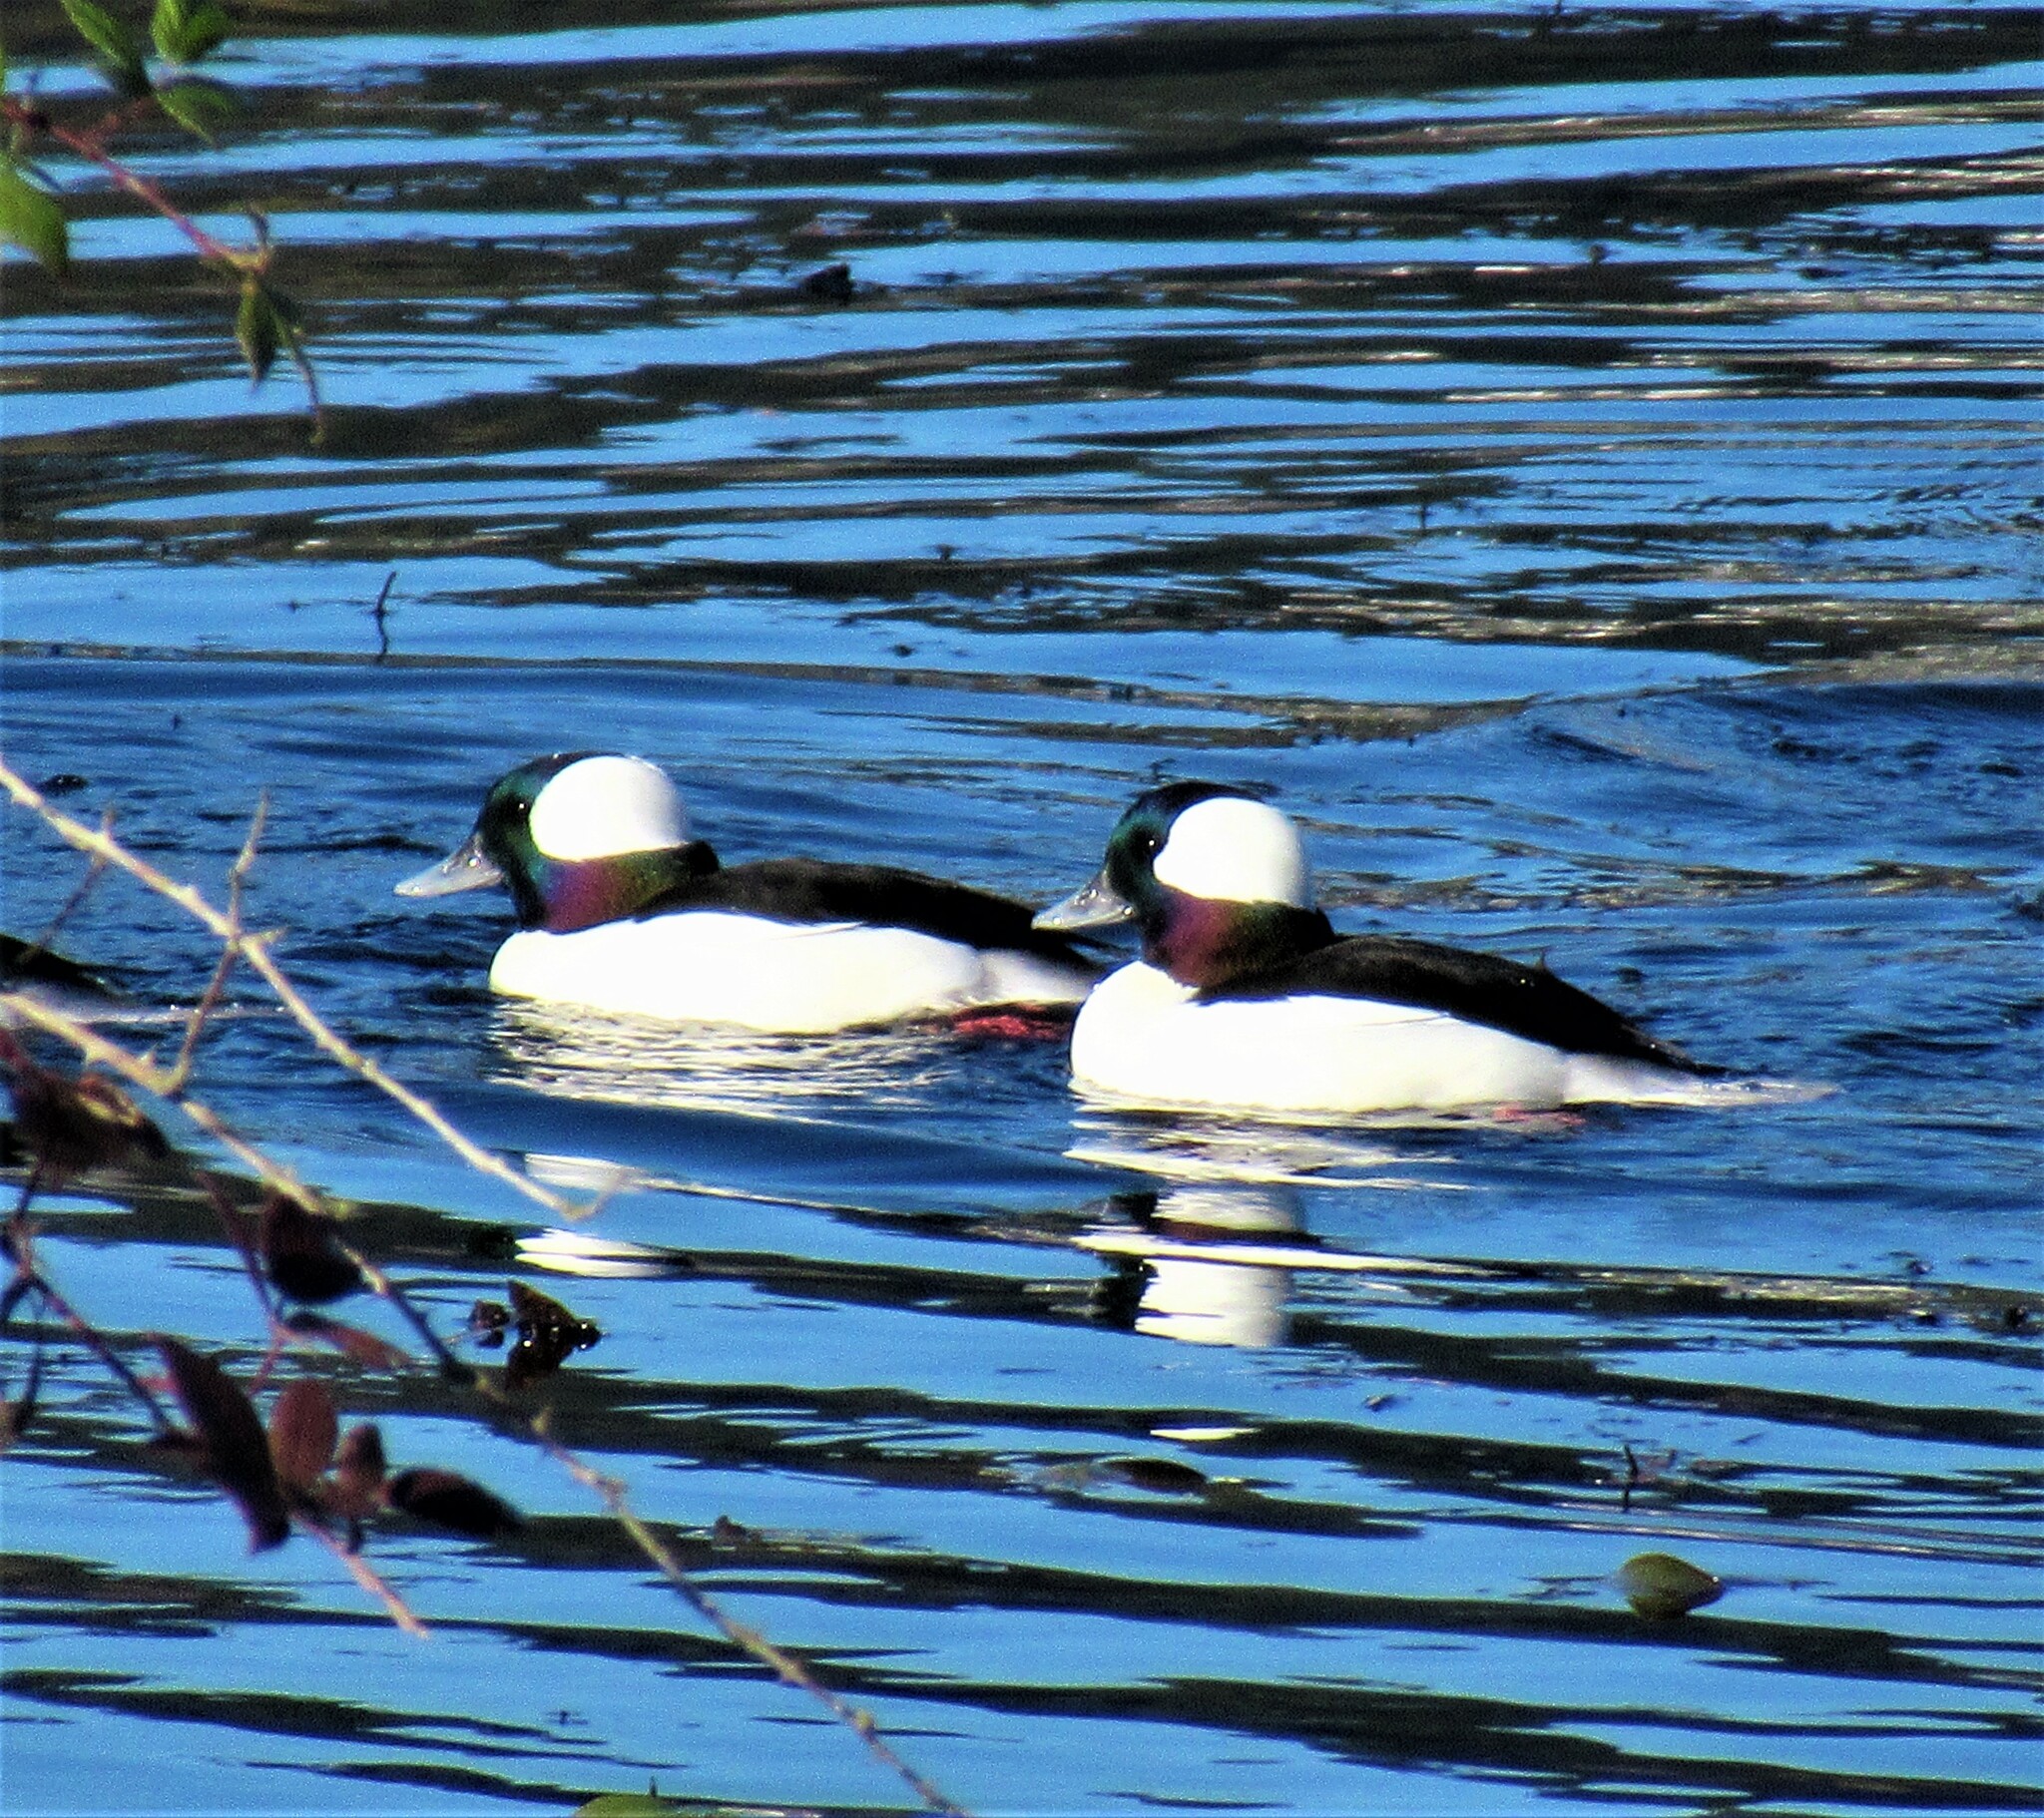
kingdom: Animalia
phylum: Chordata
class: Aves
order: Anseriformes
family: Anatidae
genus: Bucephala
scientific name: Bucephala albeola
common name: Bufflehead
